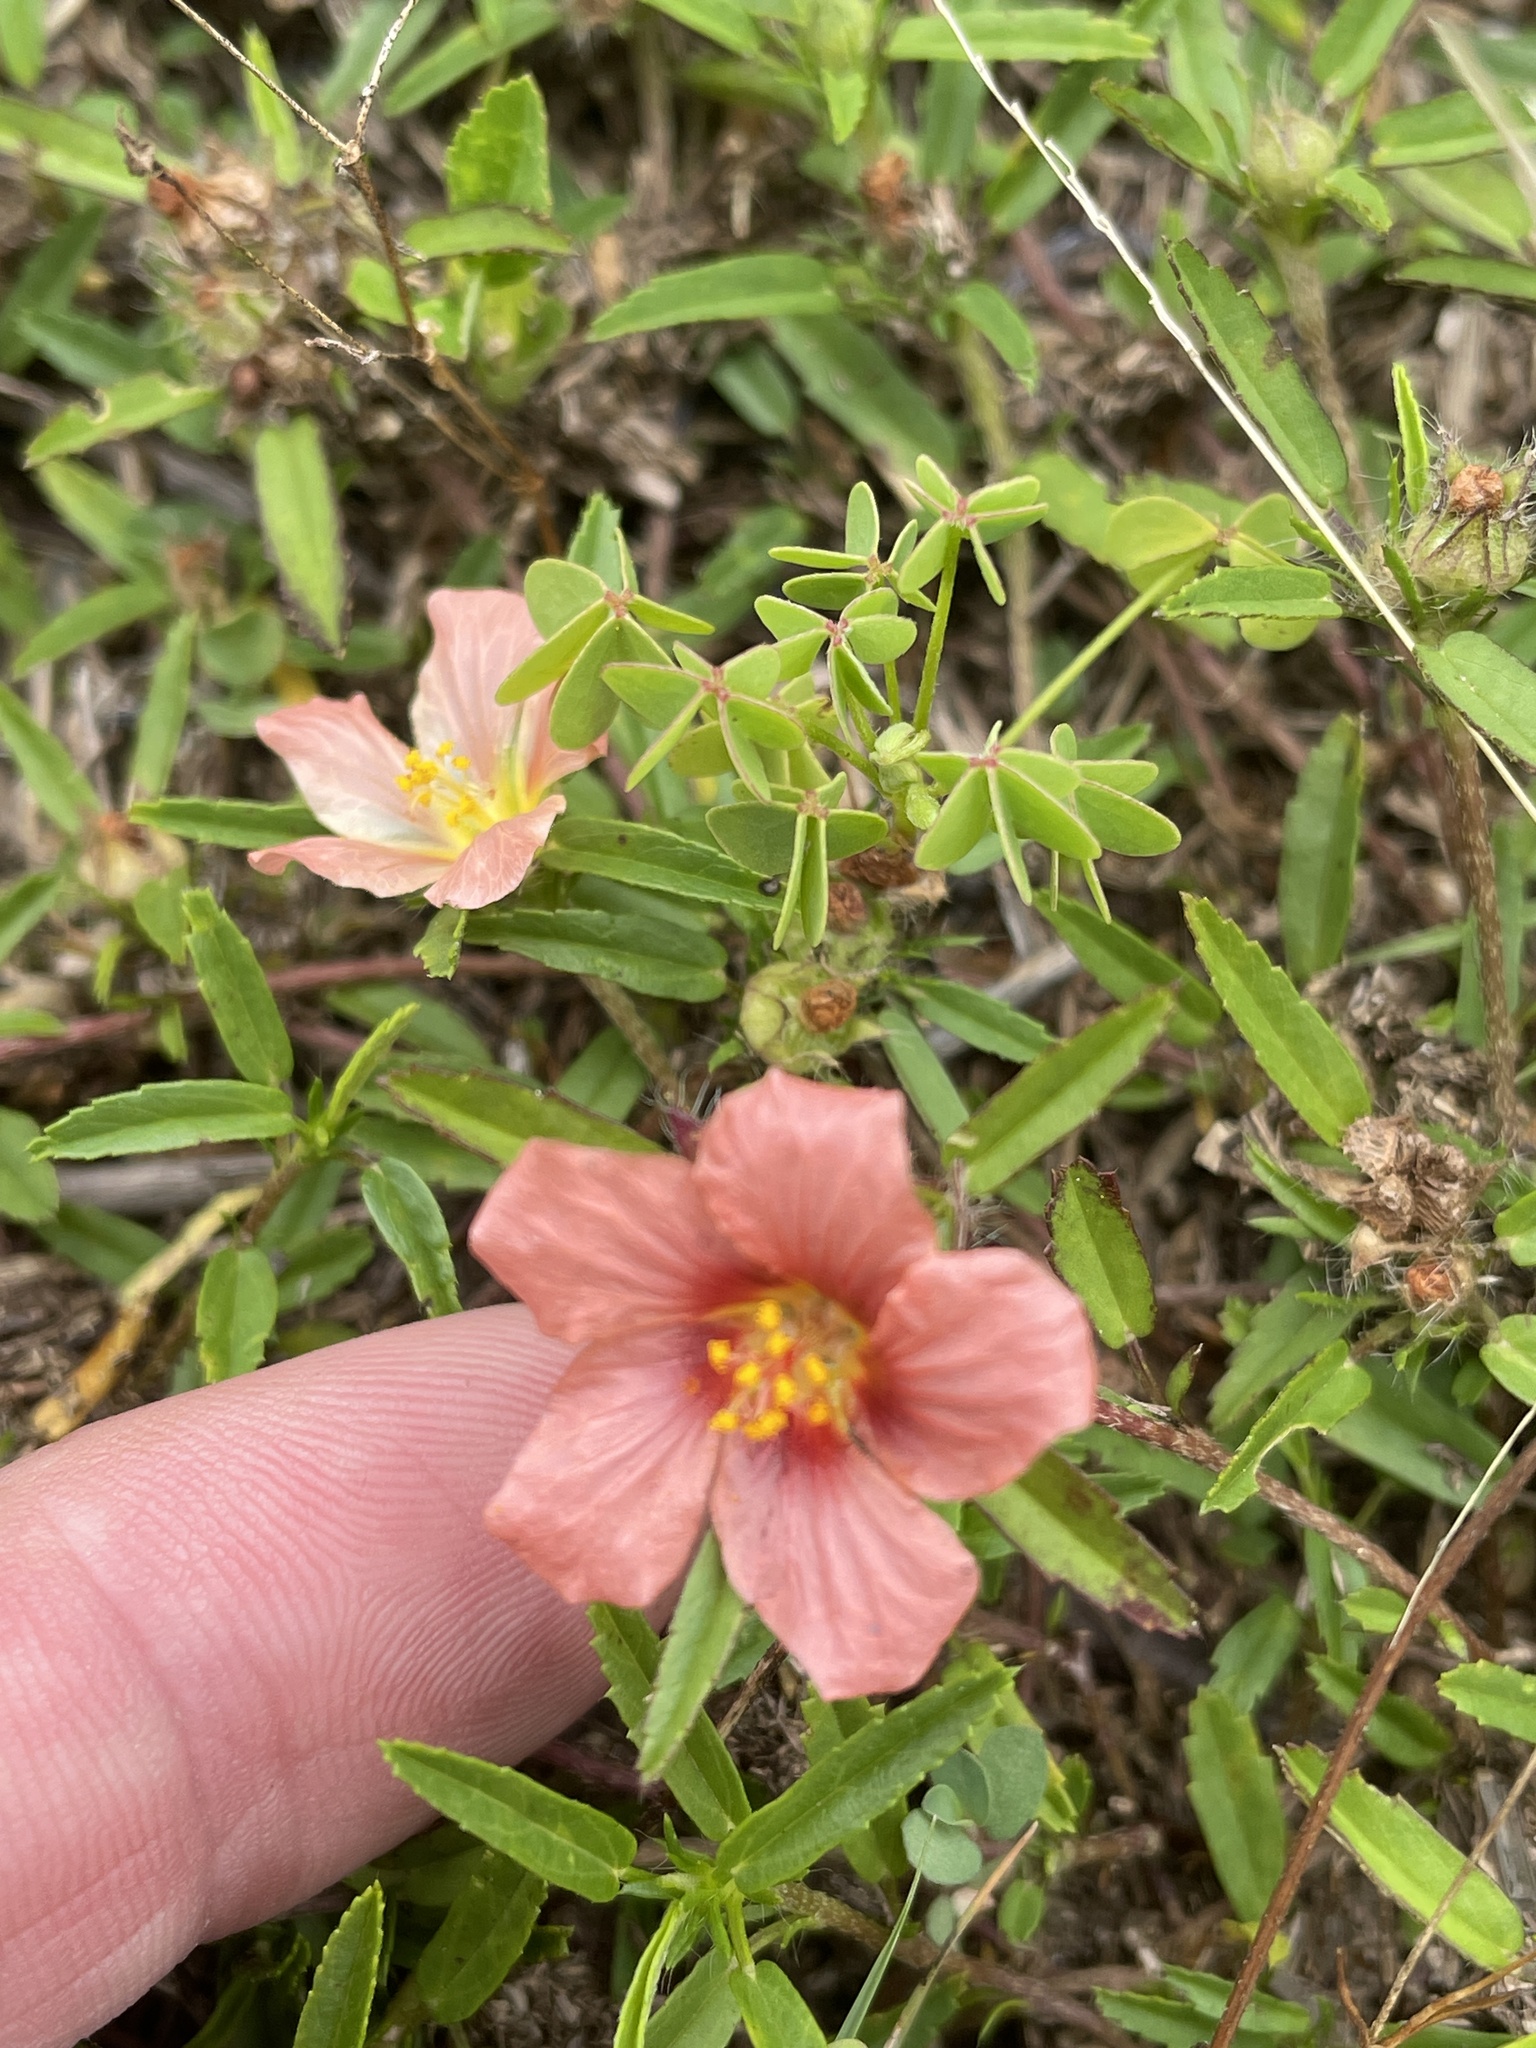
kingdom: Plantae
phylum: Tracheophyta
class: Magnoliopsida
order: Malvales
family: Malvaceae
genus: Sida
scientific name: Sida ciliaris
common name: Bracted fanpetals
